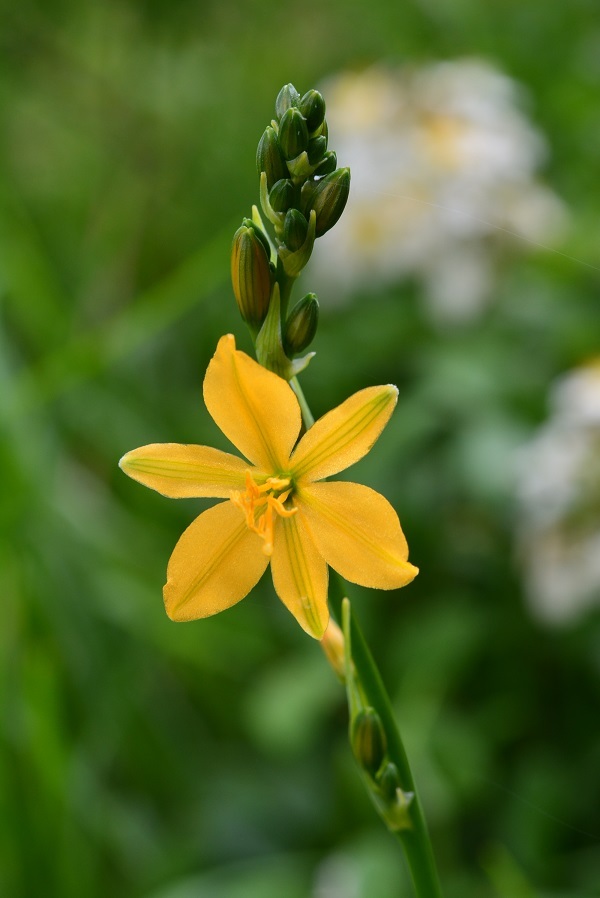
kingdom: Plantae
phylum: Tracheophyta
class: Liliopsida
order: Asparagales
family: Asparagaceae
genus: Echeandia
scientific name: Echeandia skinneri
